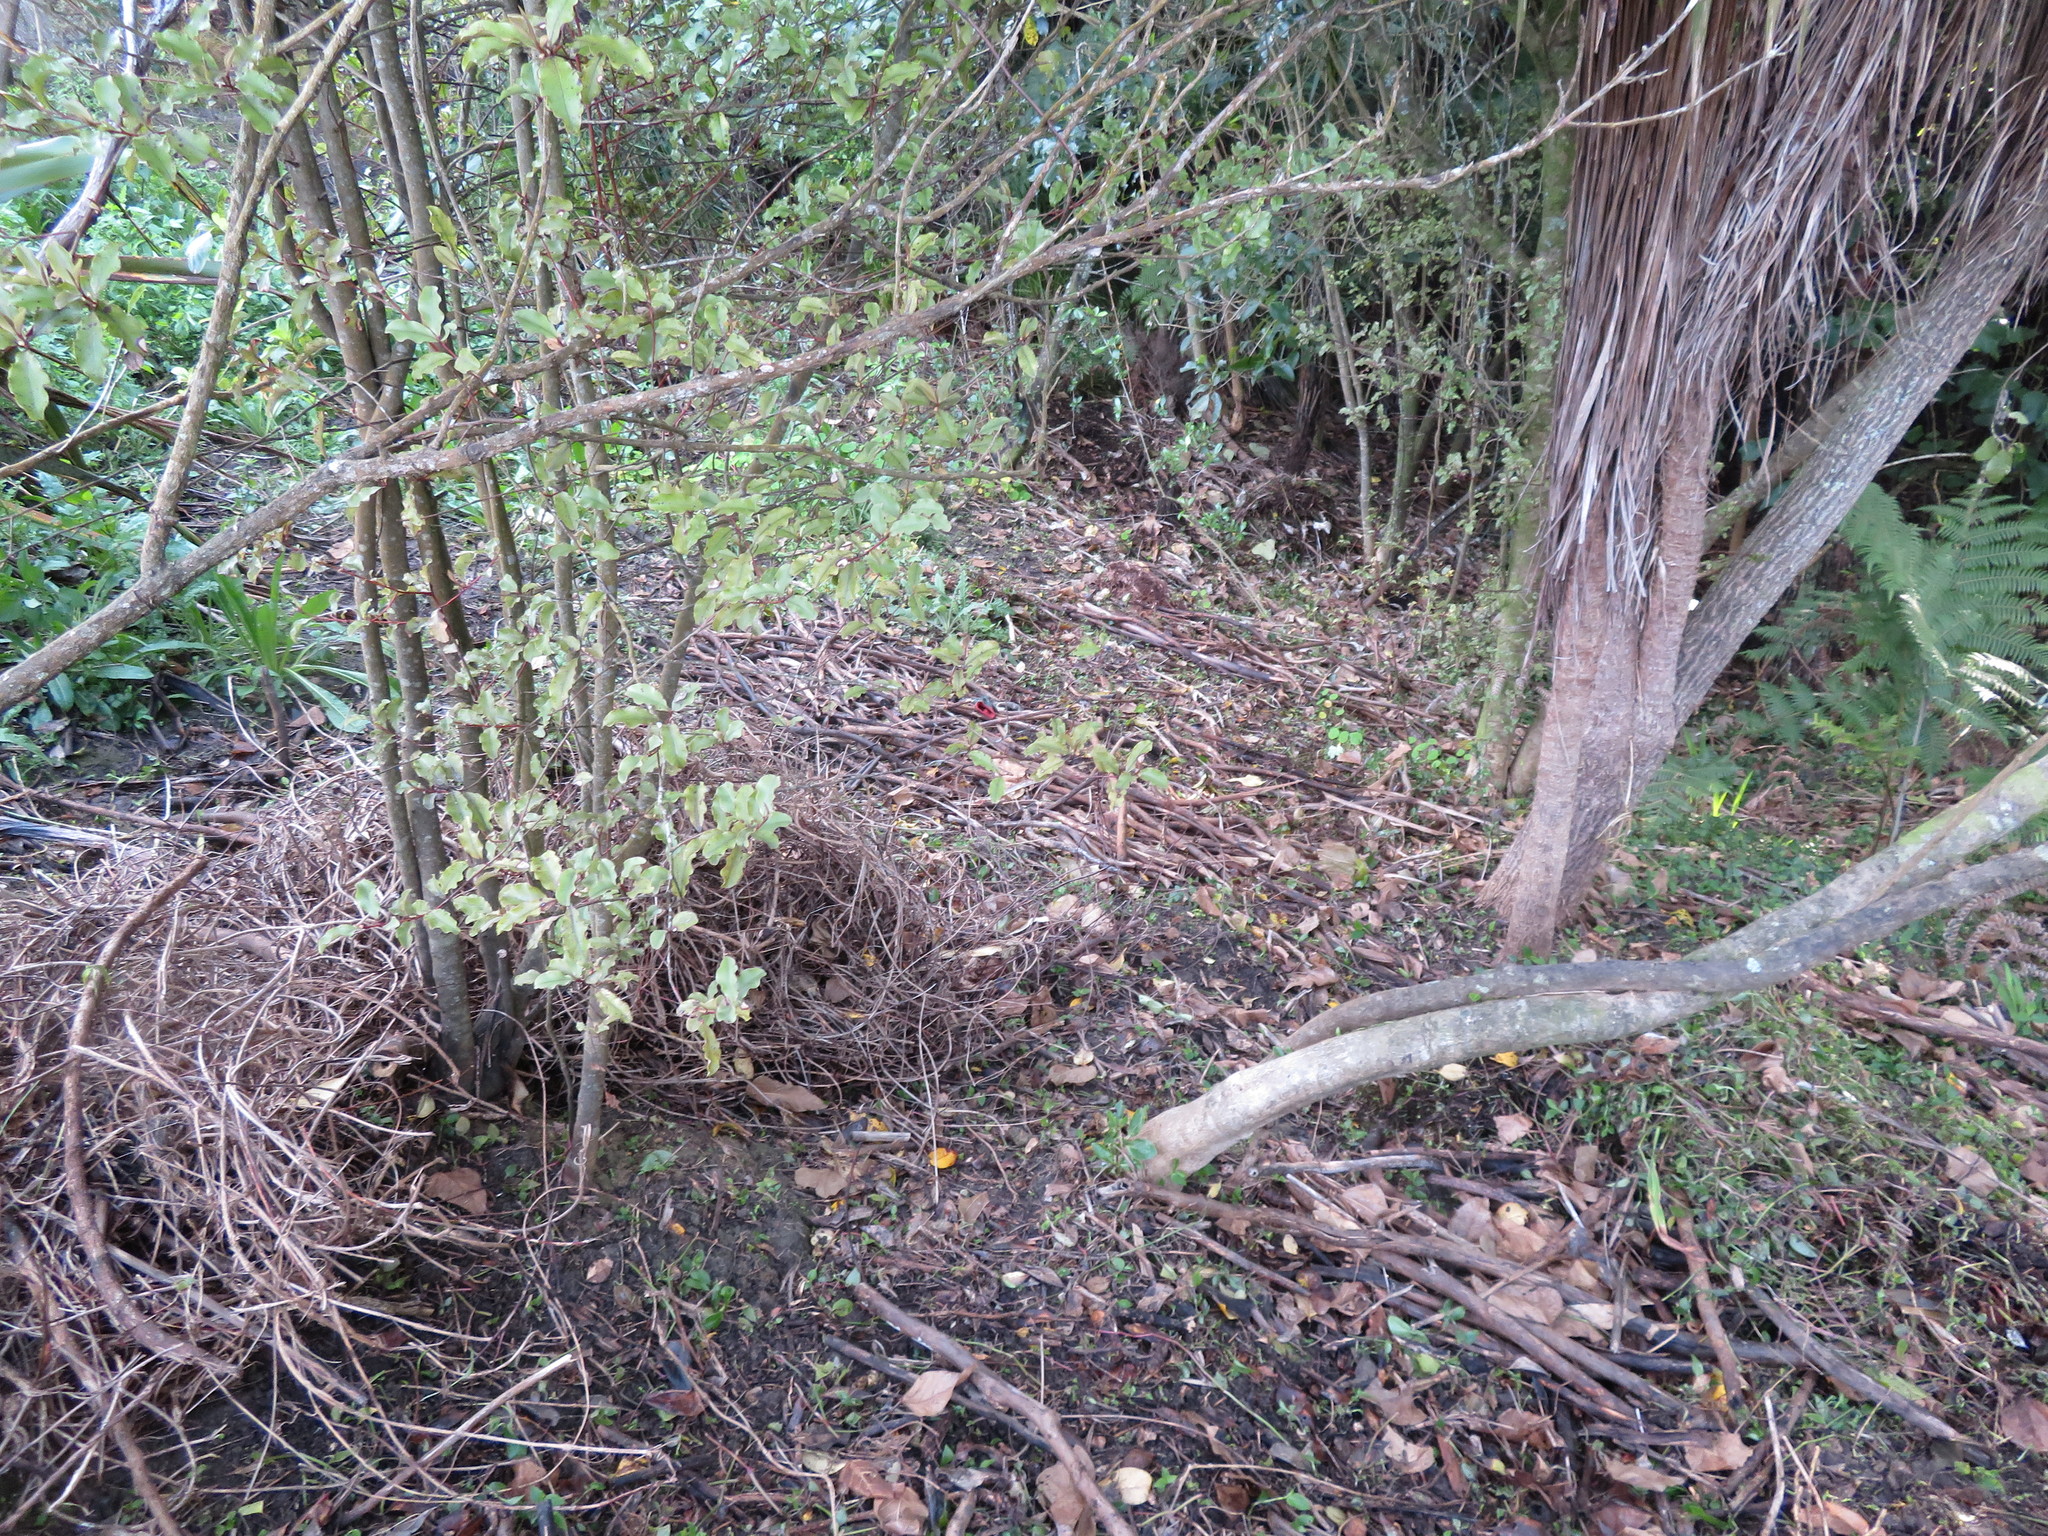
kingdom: Plantae
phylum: Tracheophyta
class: Magnoliopsida
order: Ericales
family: Primulaceae
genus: Myrsine
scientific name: Myrsine australis
